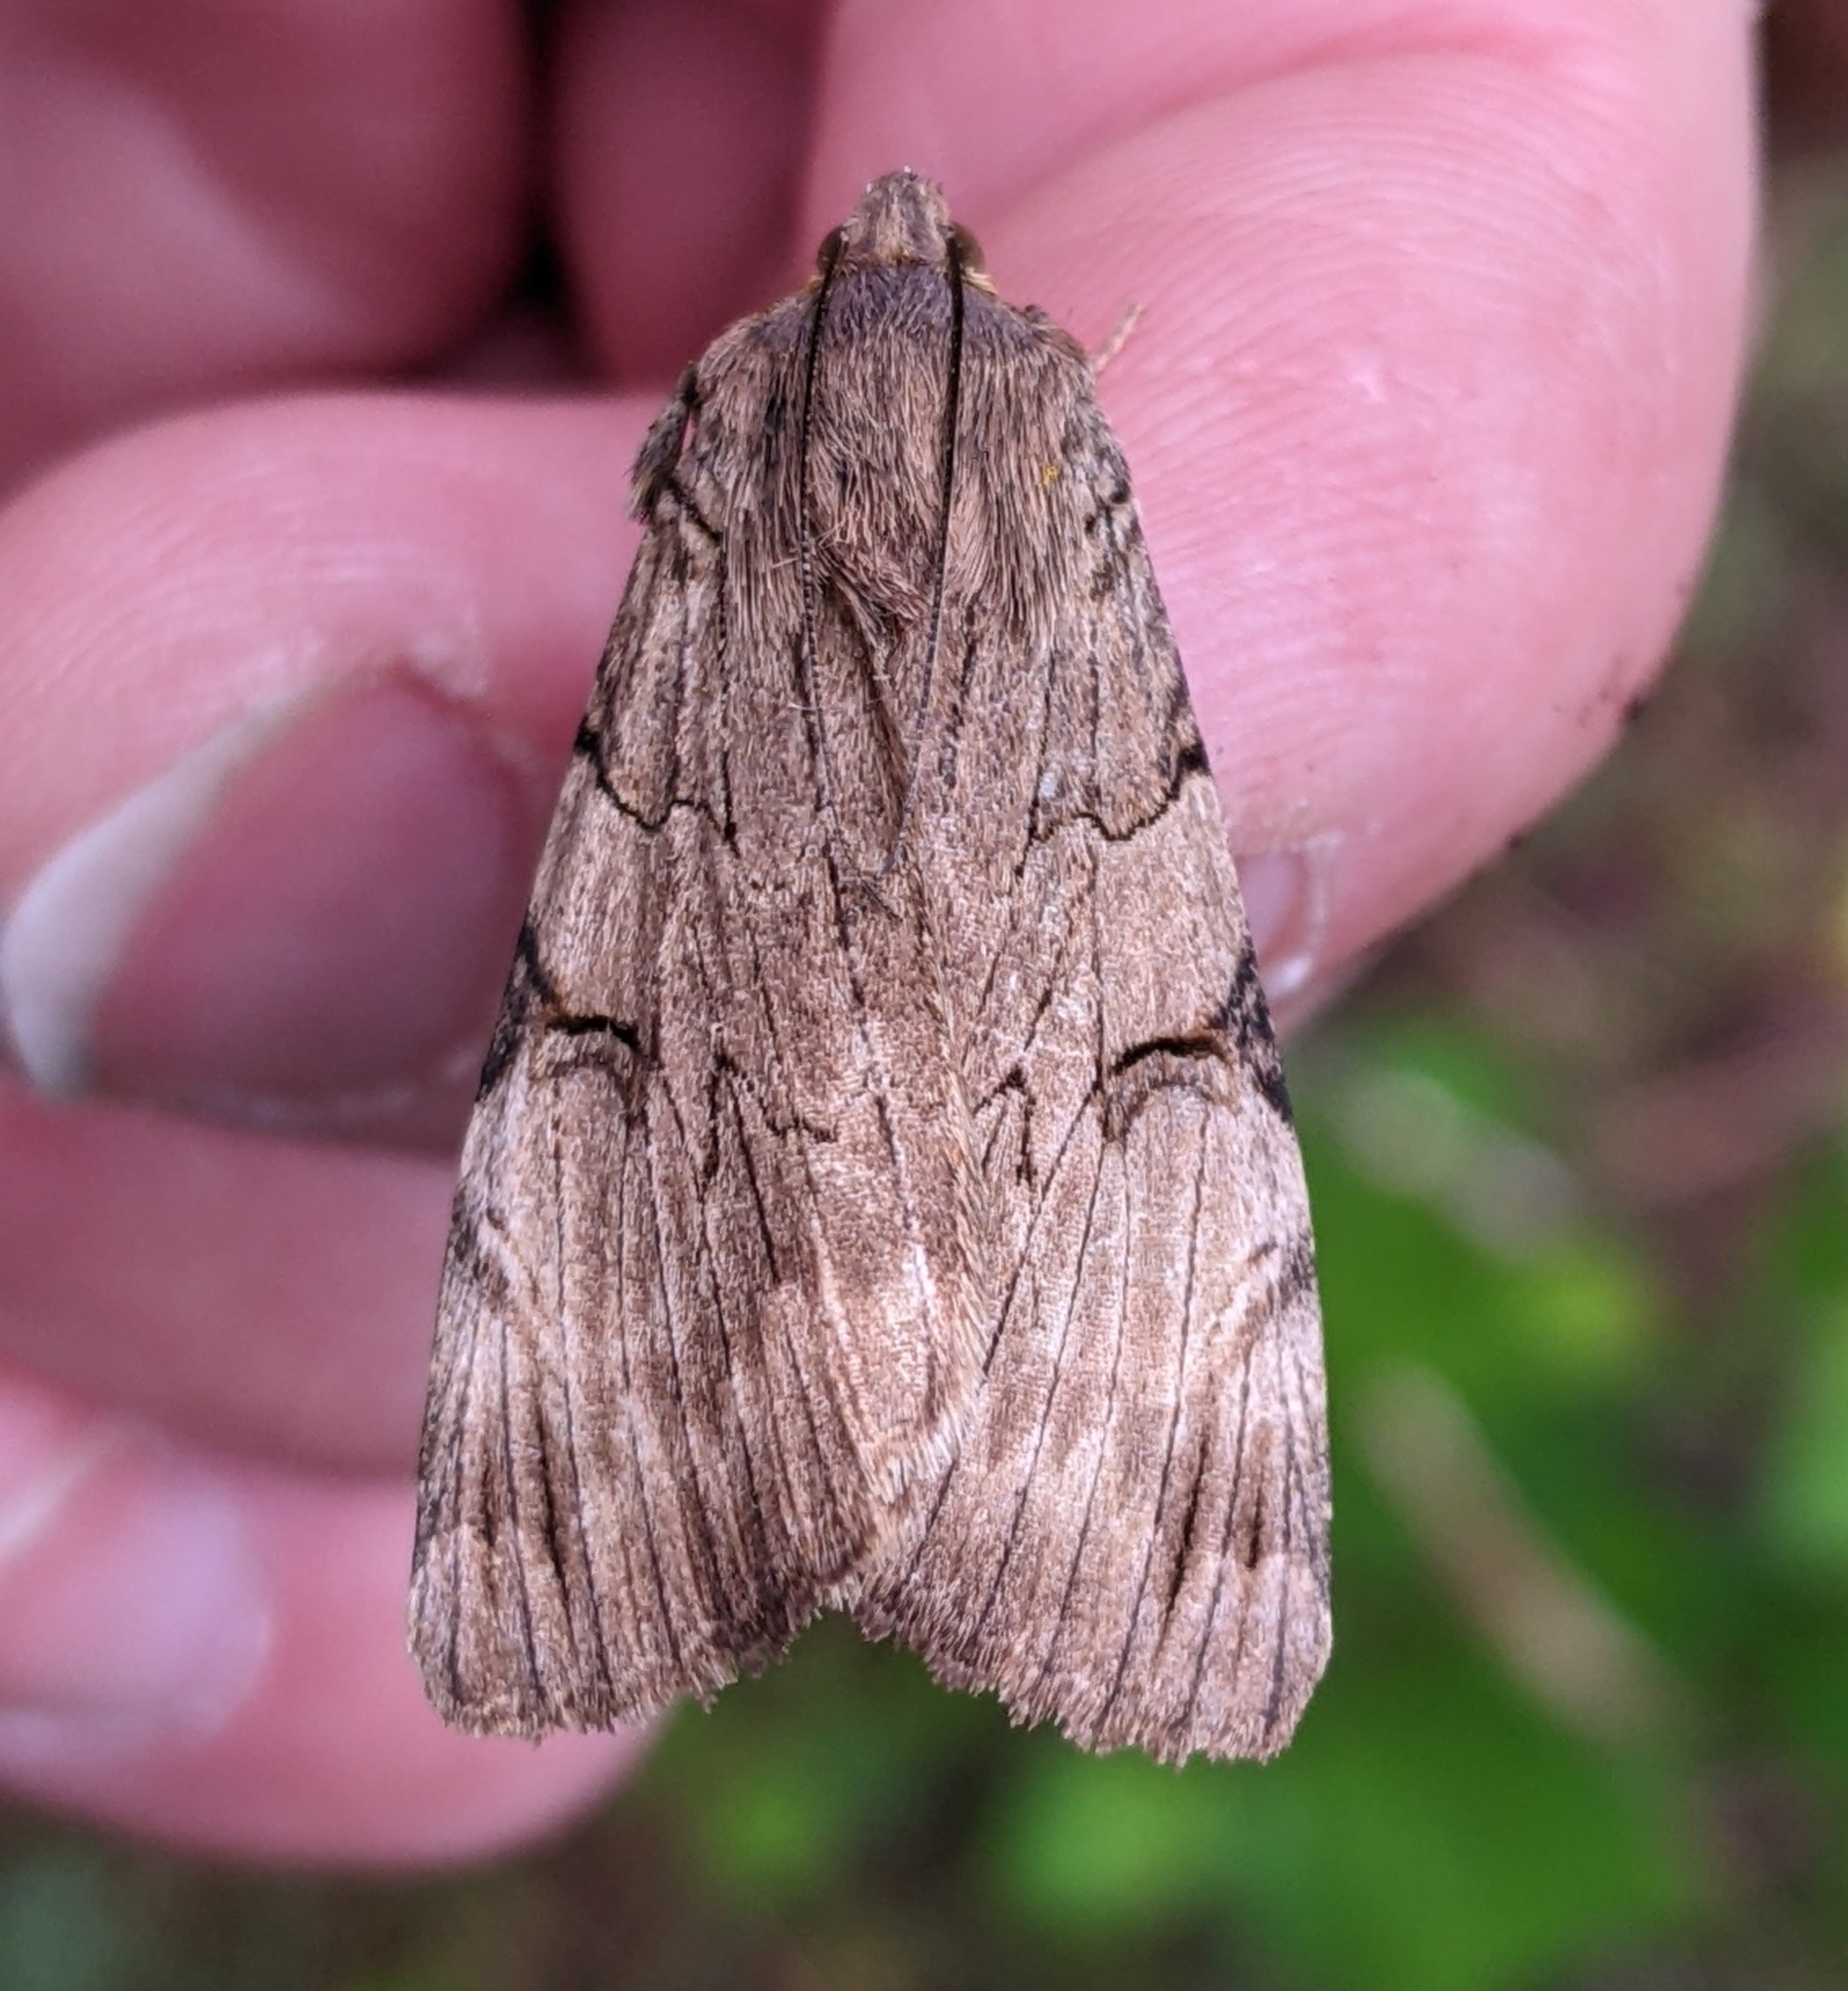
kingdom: Animalia
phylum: Arthropoda
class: Insecta
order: Lepidoptera
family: Erebidae
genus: Drasteria
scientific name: Drasteria ochracea
